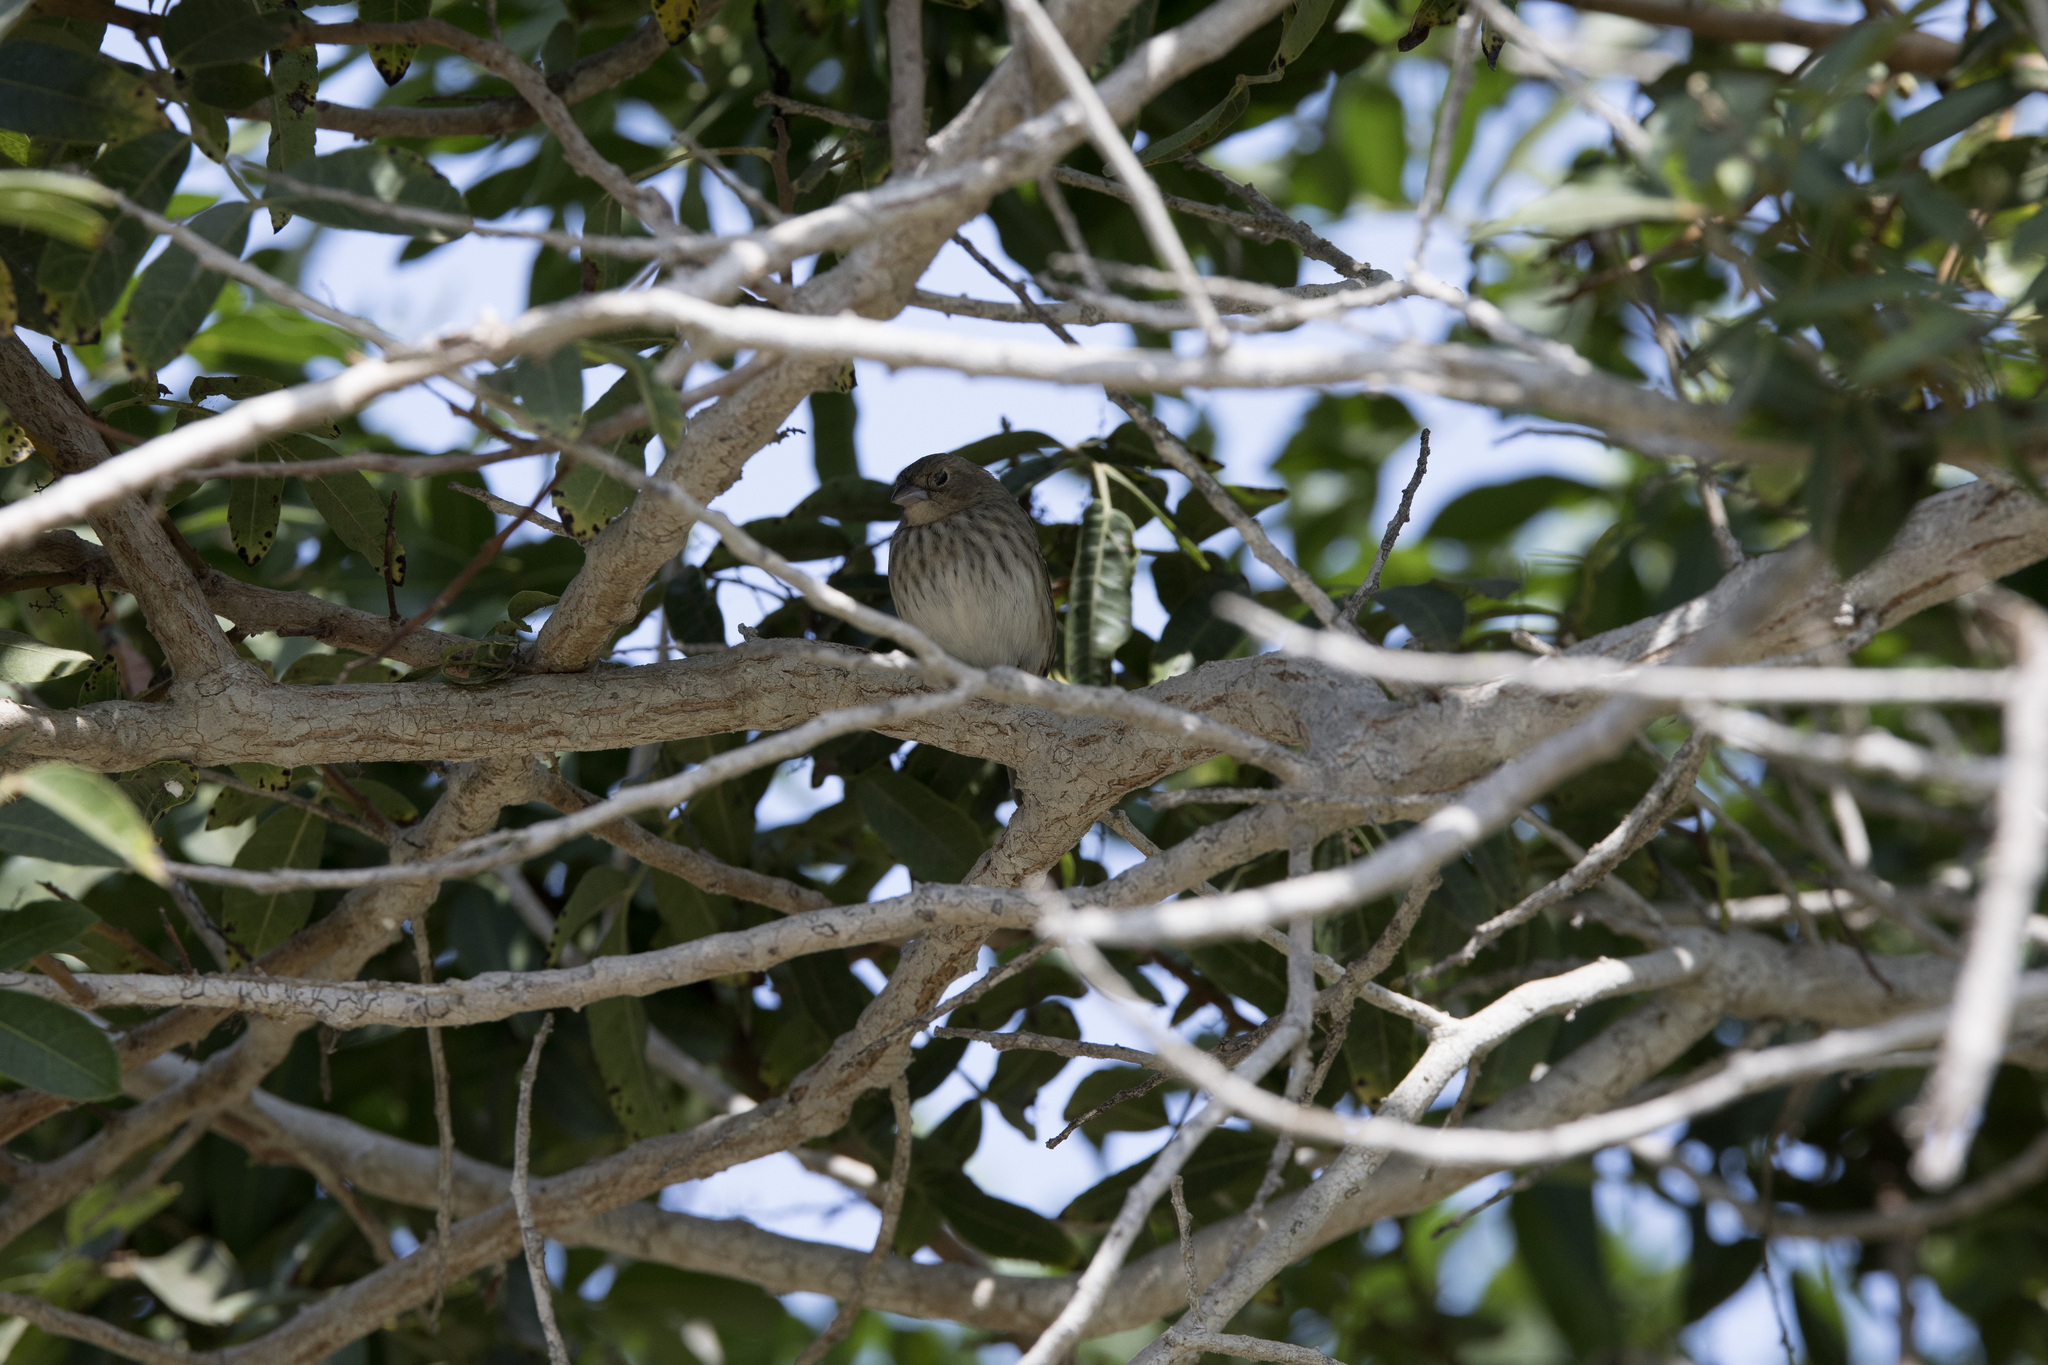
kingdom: Animalia
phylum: Chordata
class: Aves
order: Passeriformes
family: Thraupidae
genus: Volatinia
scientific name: Volatinia jacarina
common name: Blue-black grassquit
